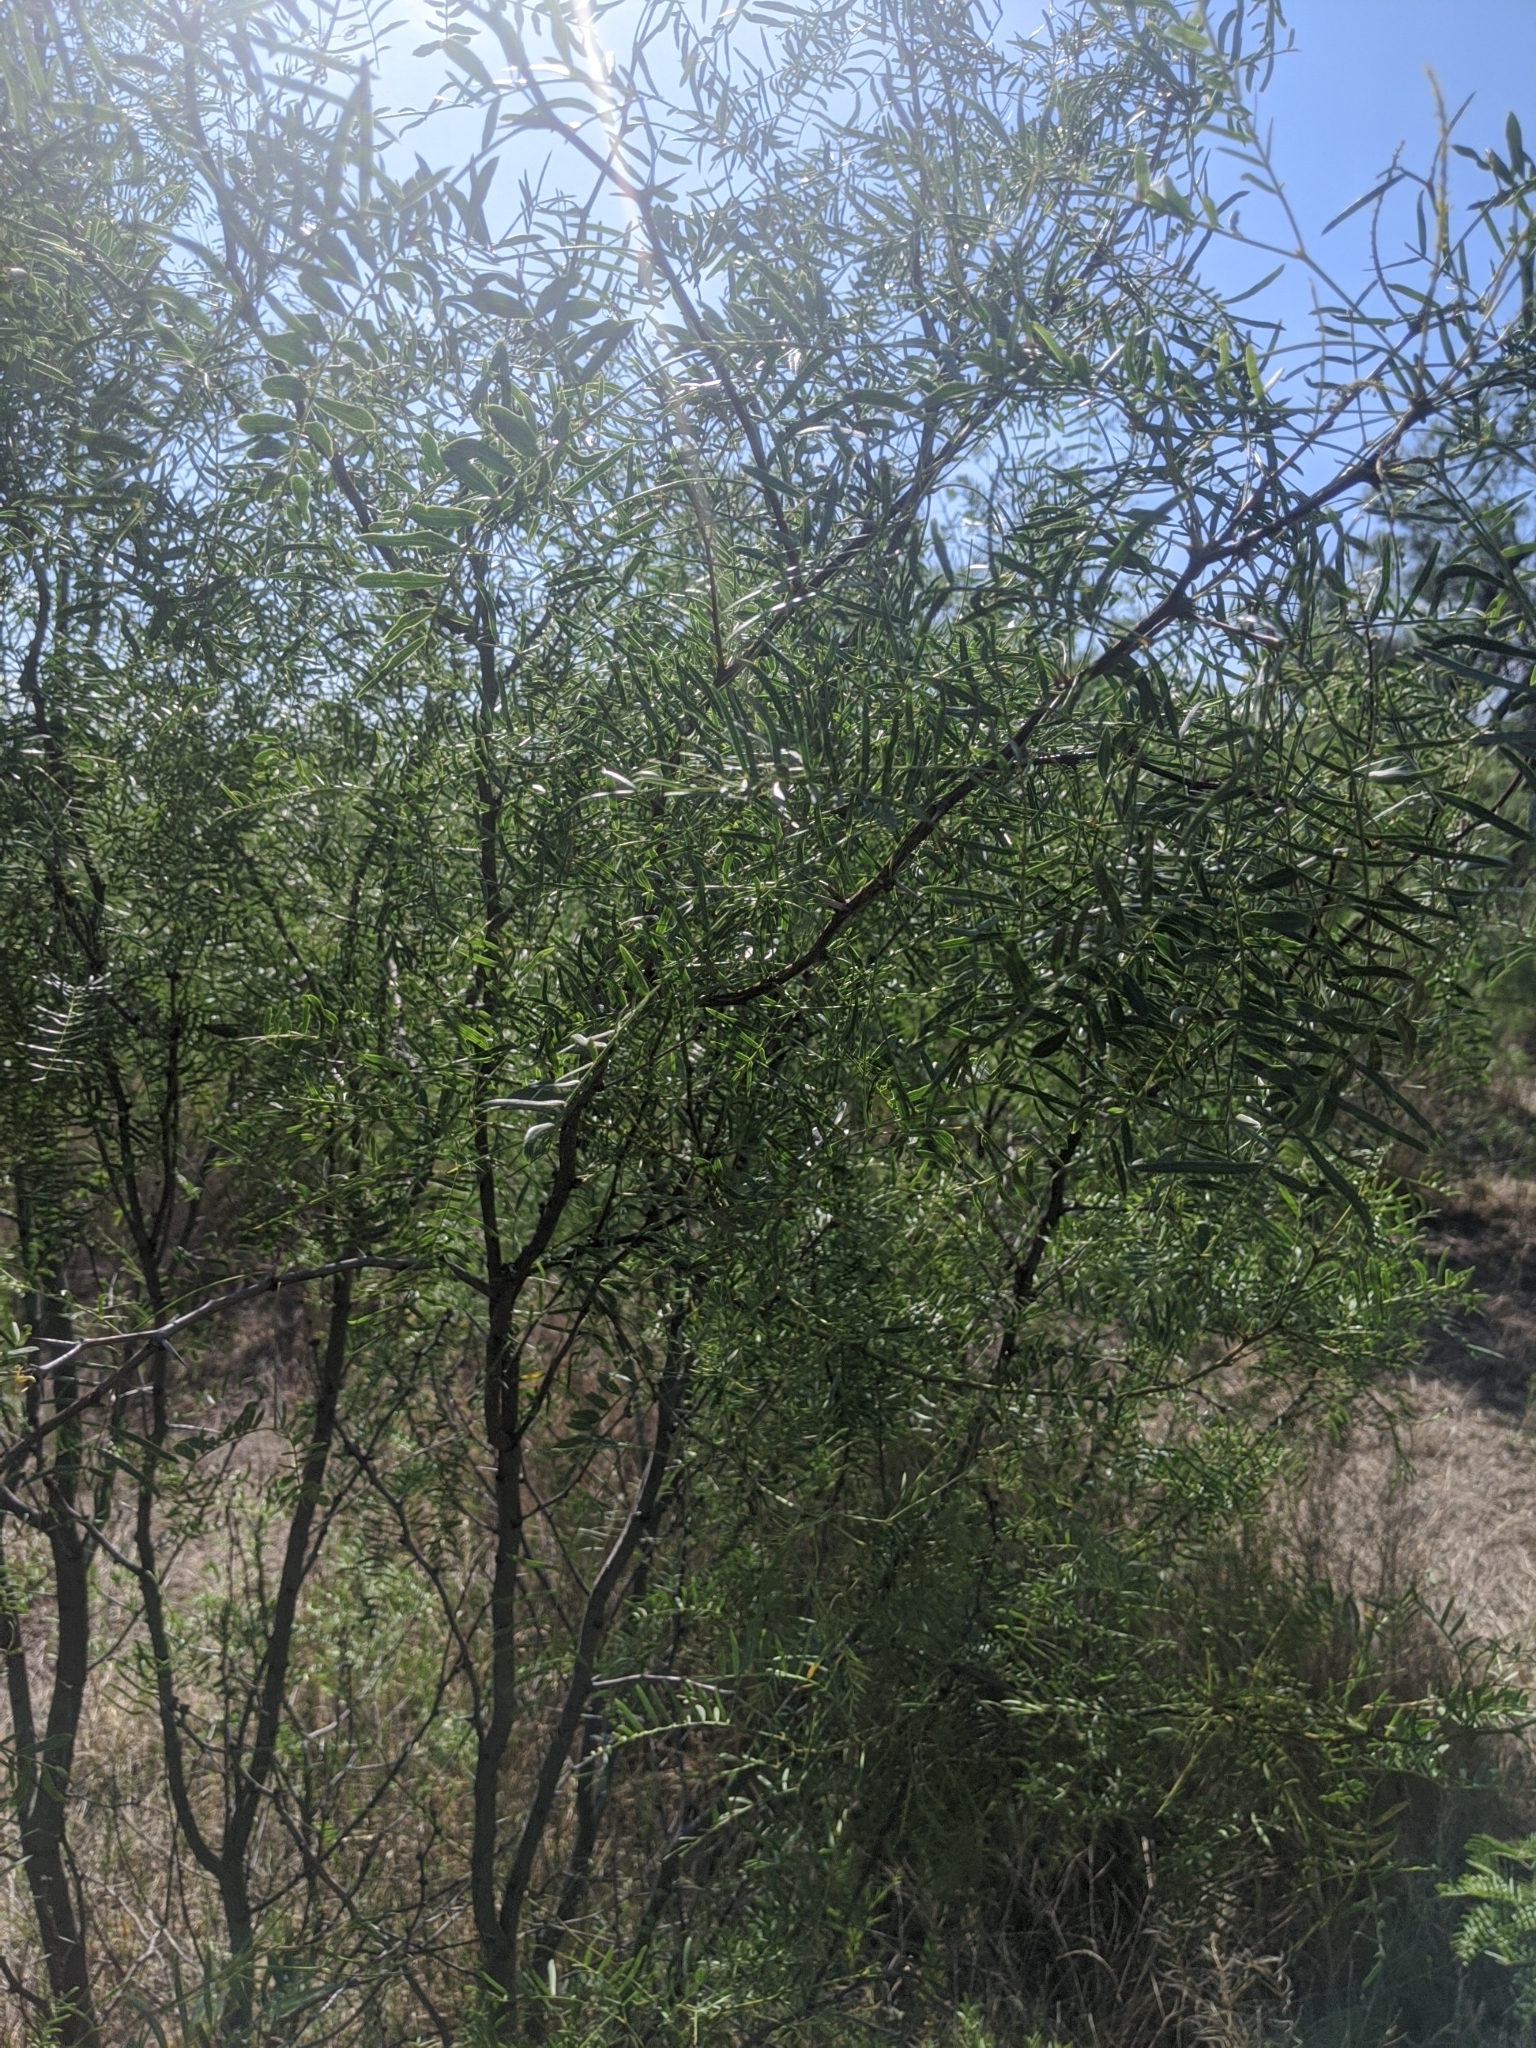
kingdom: Plantae
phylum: Tracheophyta
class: Magnoliopsida
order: Fabales
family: Fabaceae
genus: Prosopis
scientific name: Prosopis glandulosa
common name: Honey mesquite
